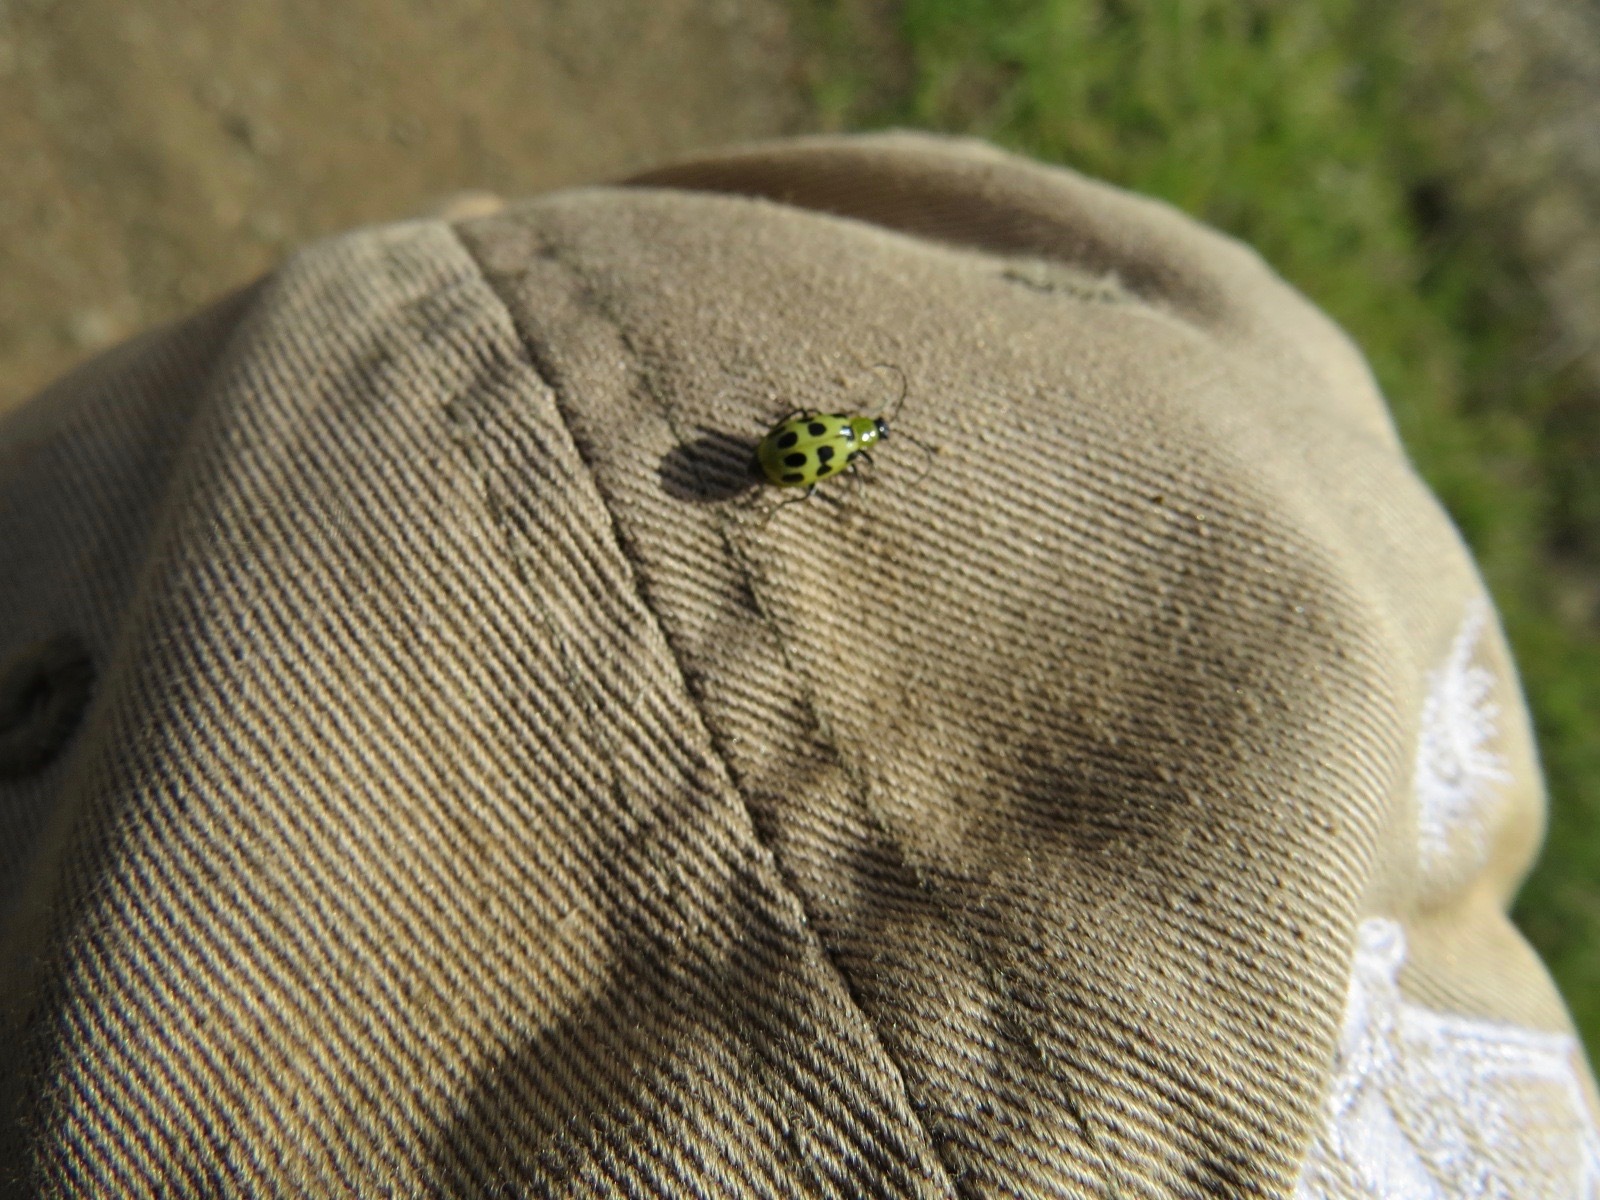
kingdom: Animalia
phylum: Arthropoda
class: Insecta
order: Coleoptera
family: Chrysomelidae
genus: Diabrotica
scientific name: Diabrotica undecimpunctata
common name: Spotted cucumber beetle
